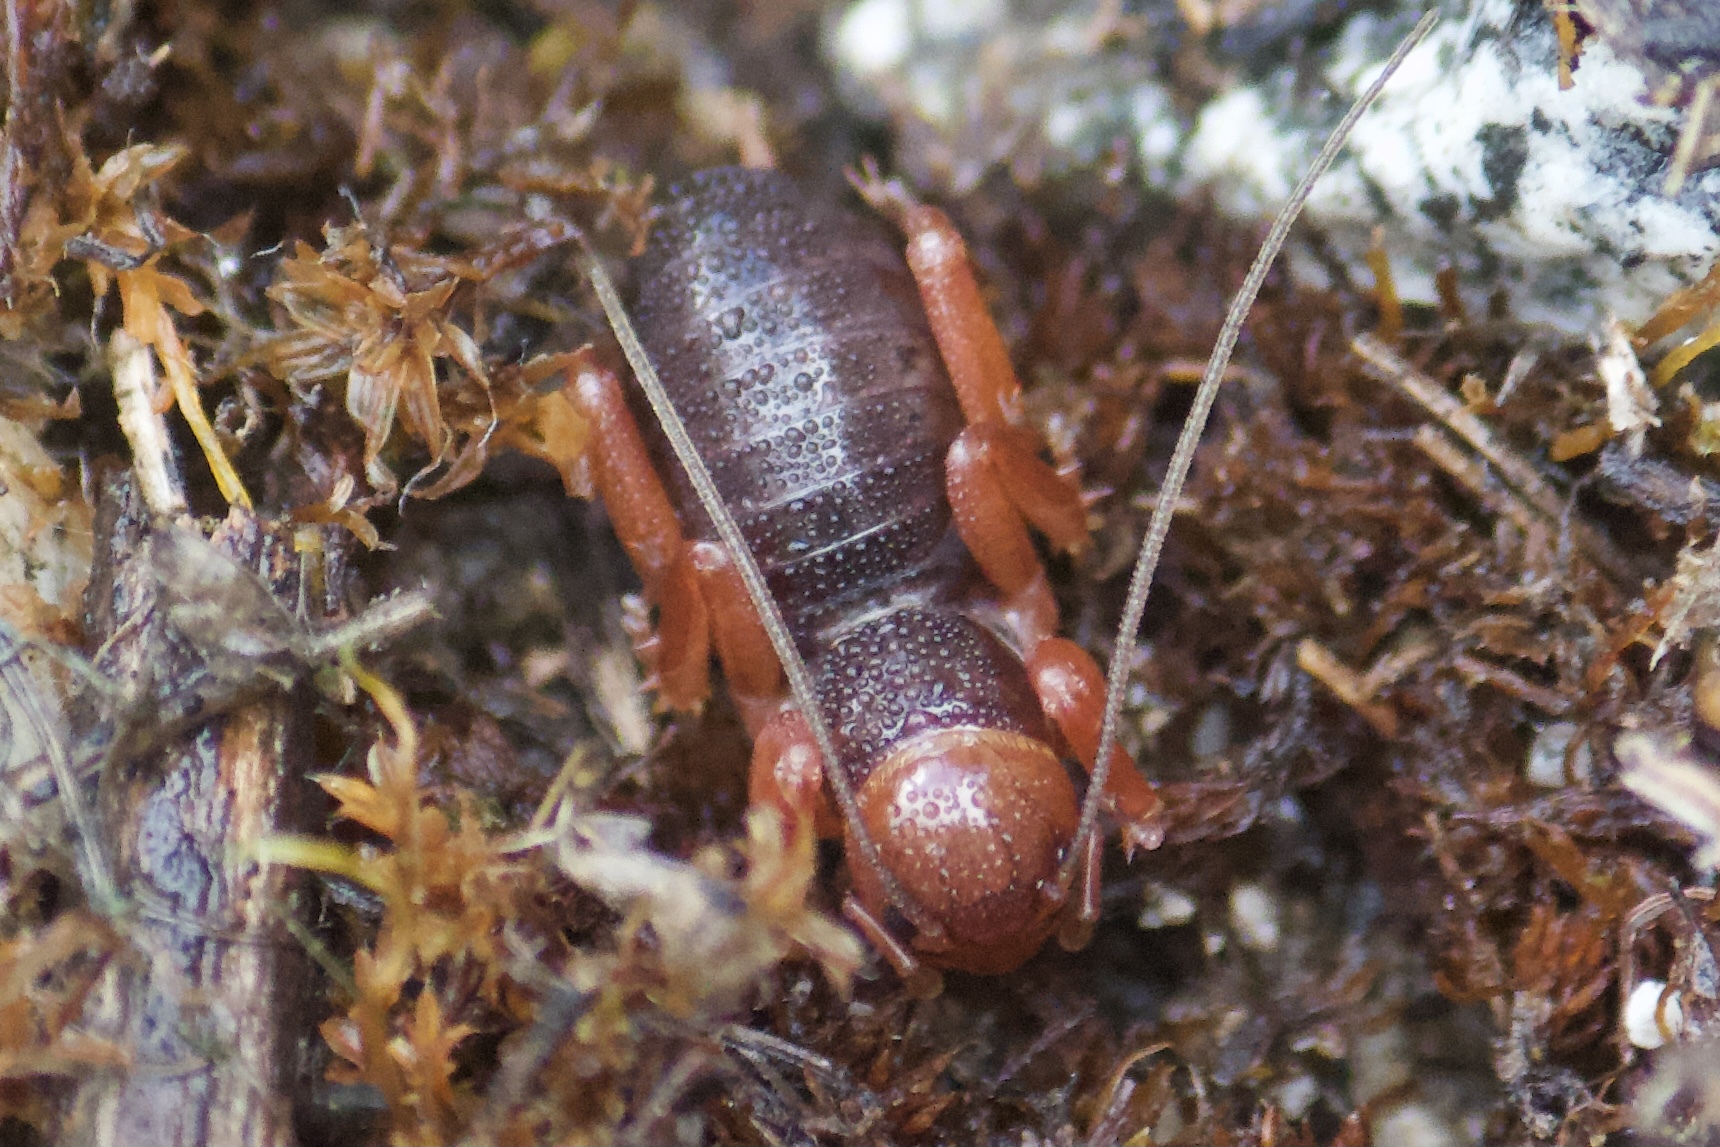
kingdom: Animalia
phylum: Arthropoda
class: Insecta
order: Orthoptera
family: Stenopelmatidae
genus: Ammopelmatus
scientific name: Ammopelmatus
